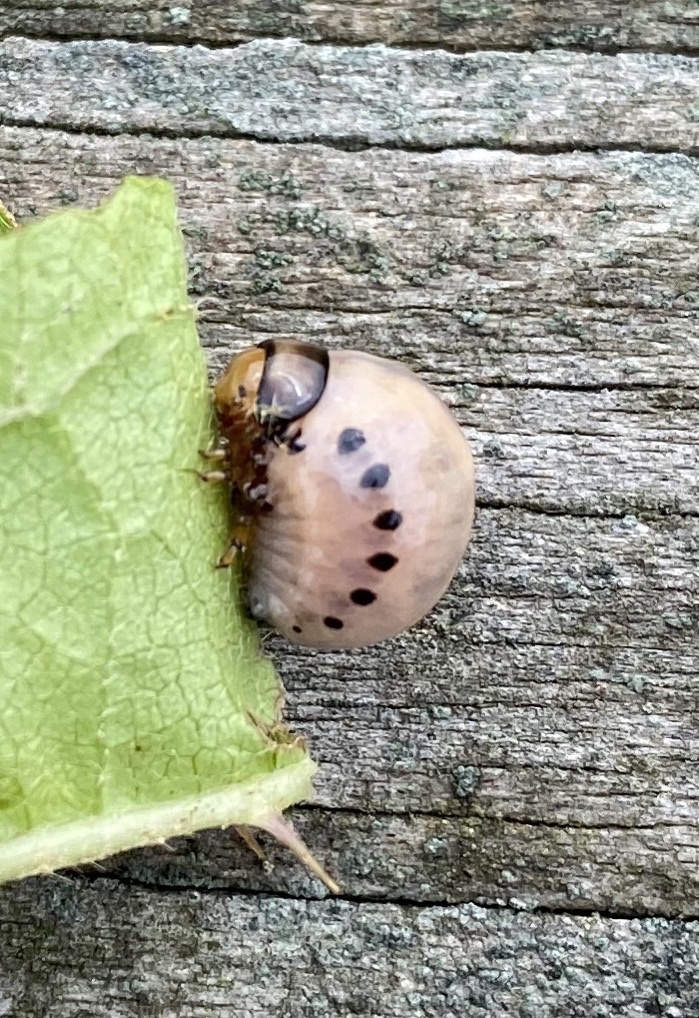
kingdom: Animalia
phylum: Arthropoda
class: Insecta
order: Coleoptera
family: Chrysomelidae
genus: Leptinotarsa
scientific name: Leptinotarsa juncta
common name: False potato beetle
